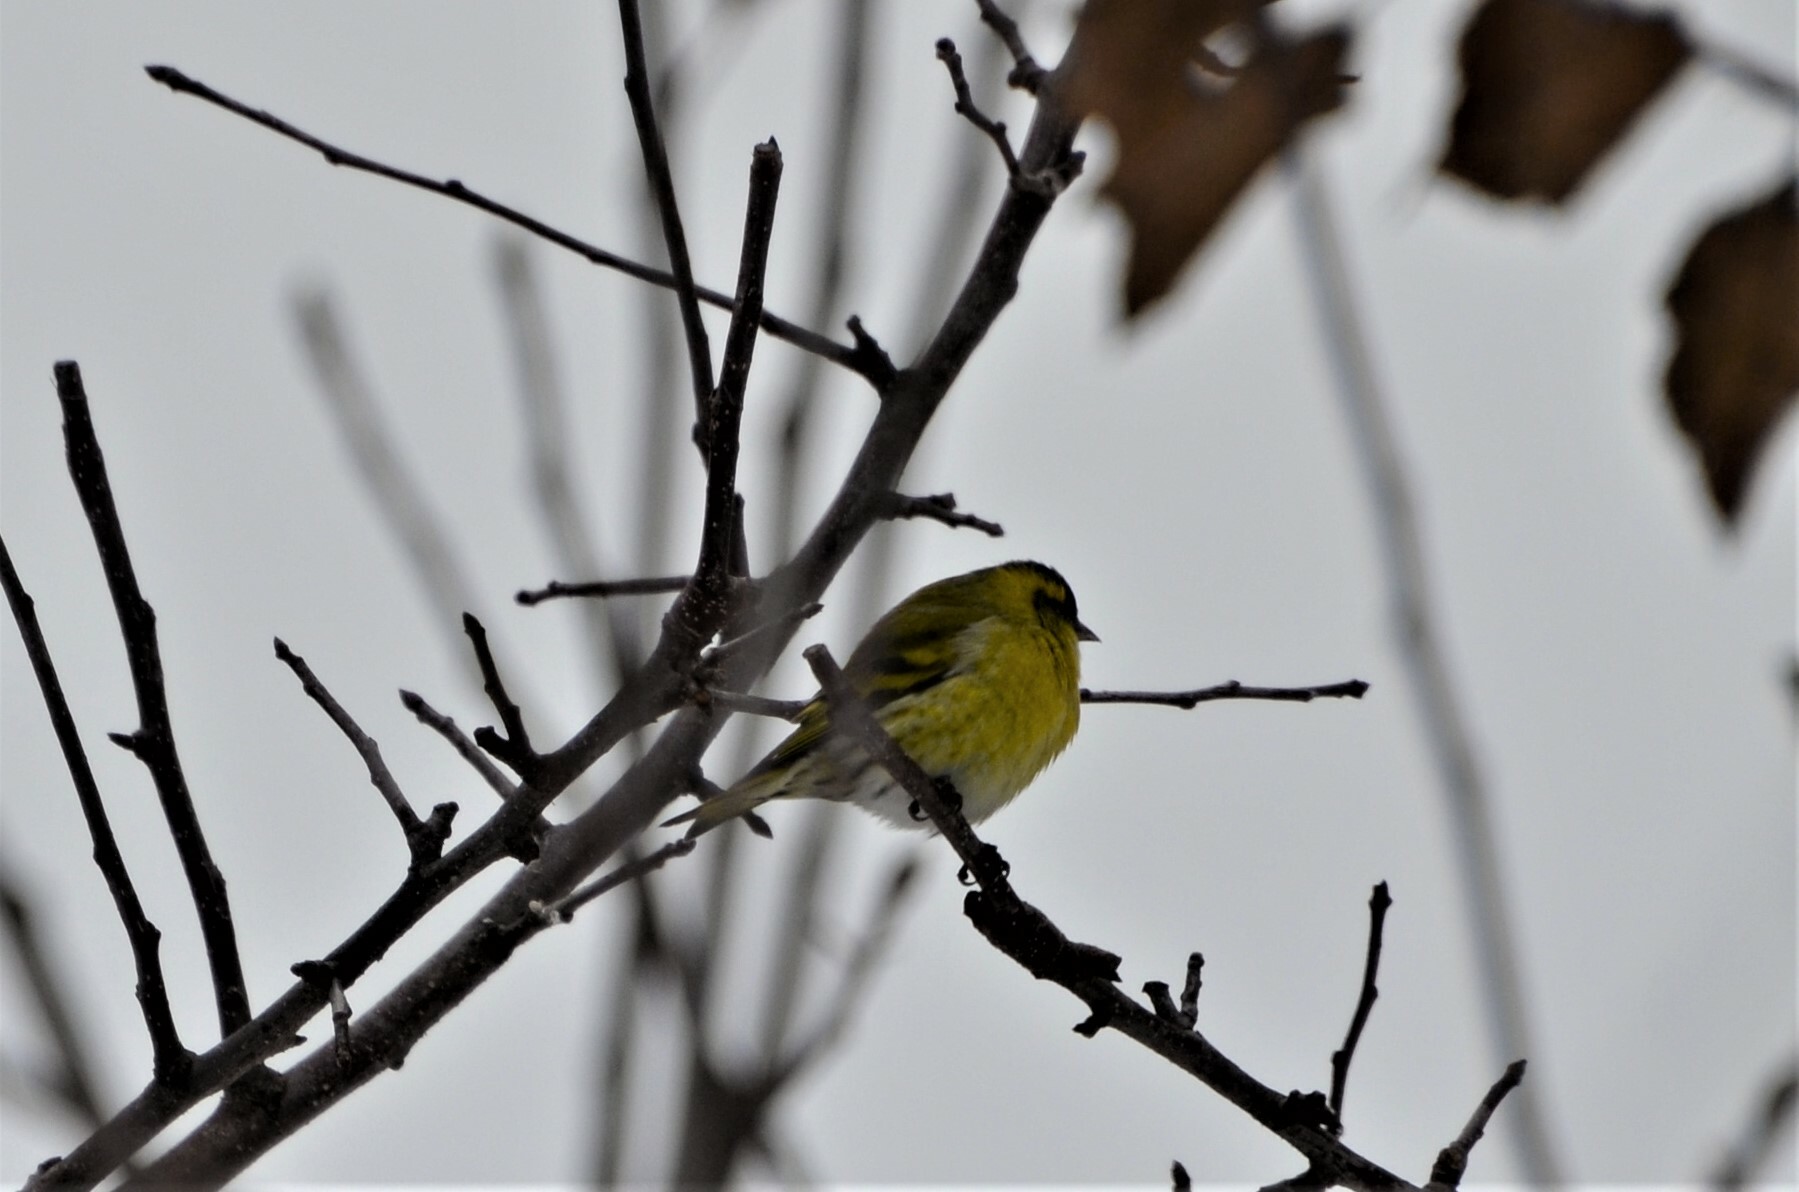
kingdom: Animalia
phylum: Chordata
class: Aves
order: Passeriformes
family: Fringillidae
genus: Spinus
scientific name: Spinus spinus
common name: Eurasian siskin
